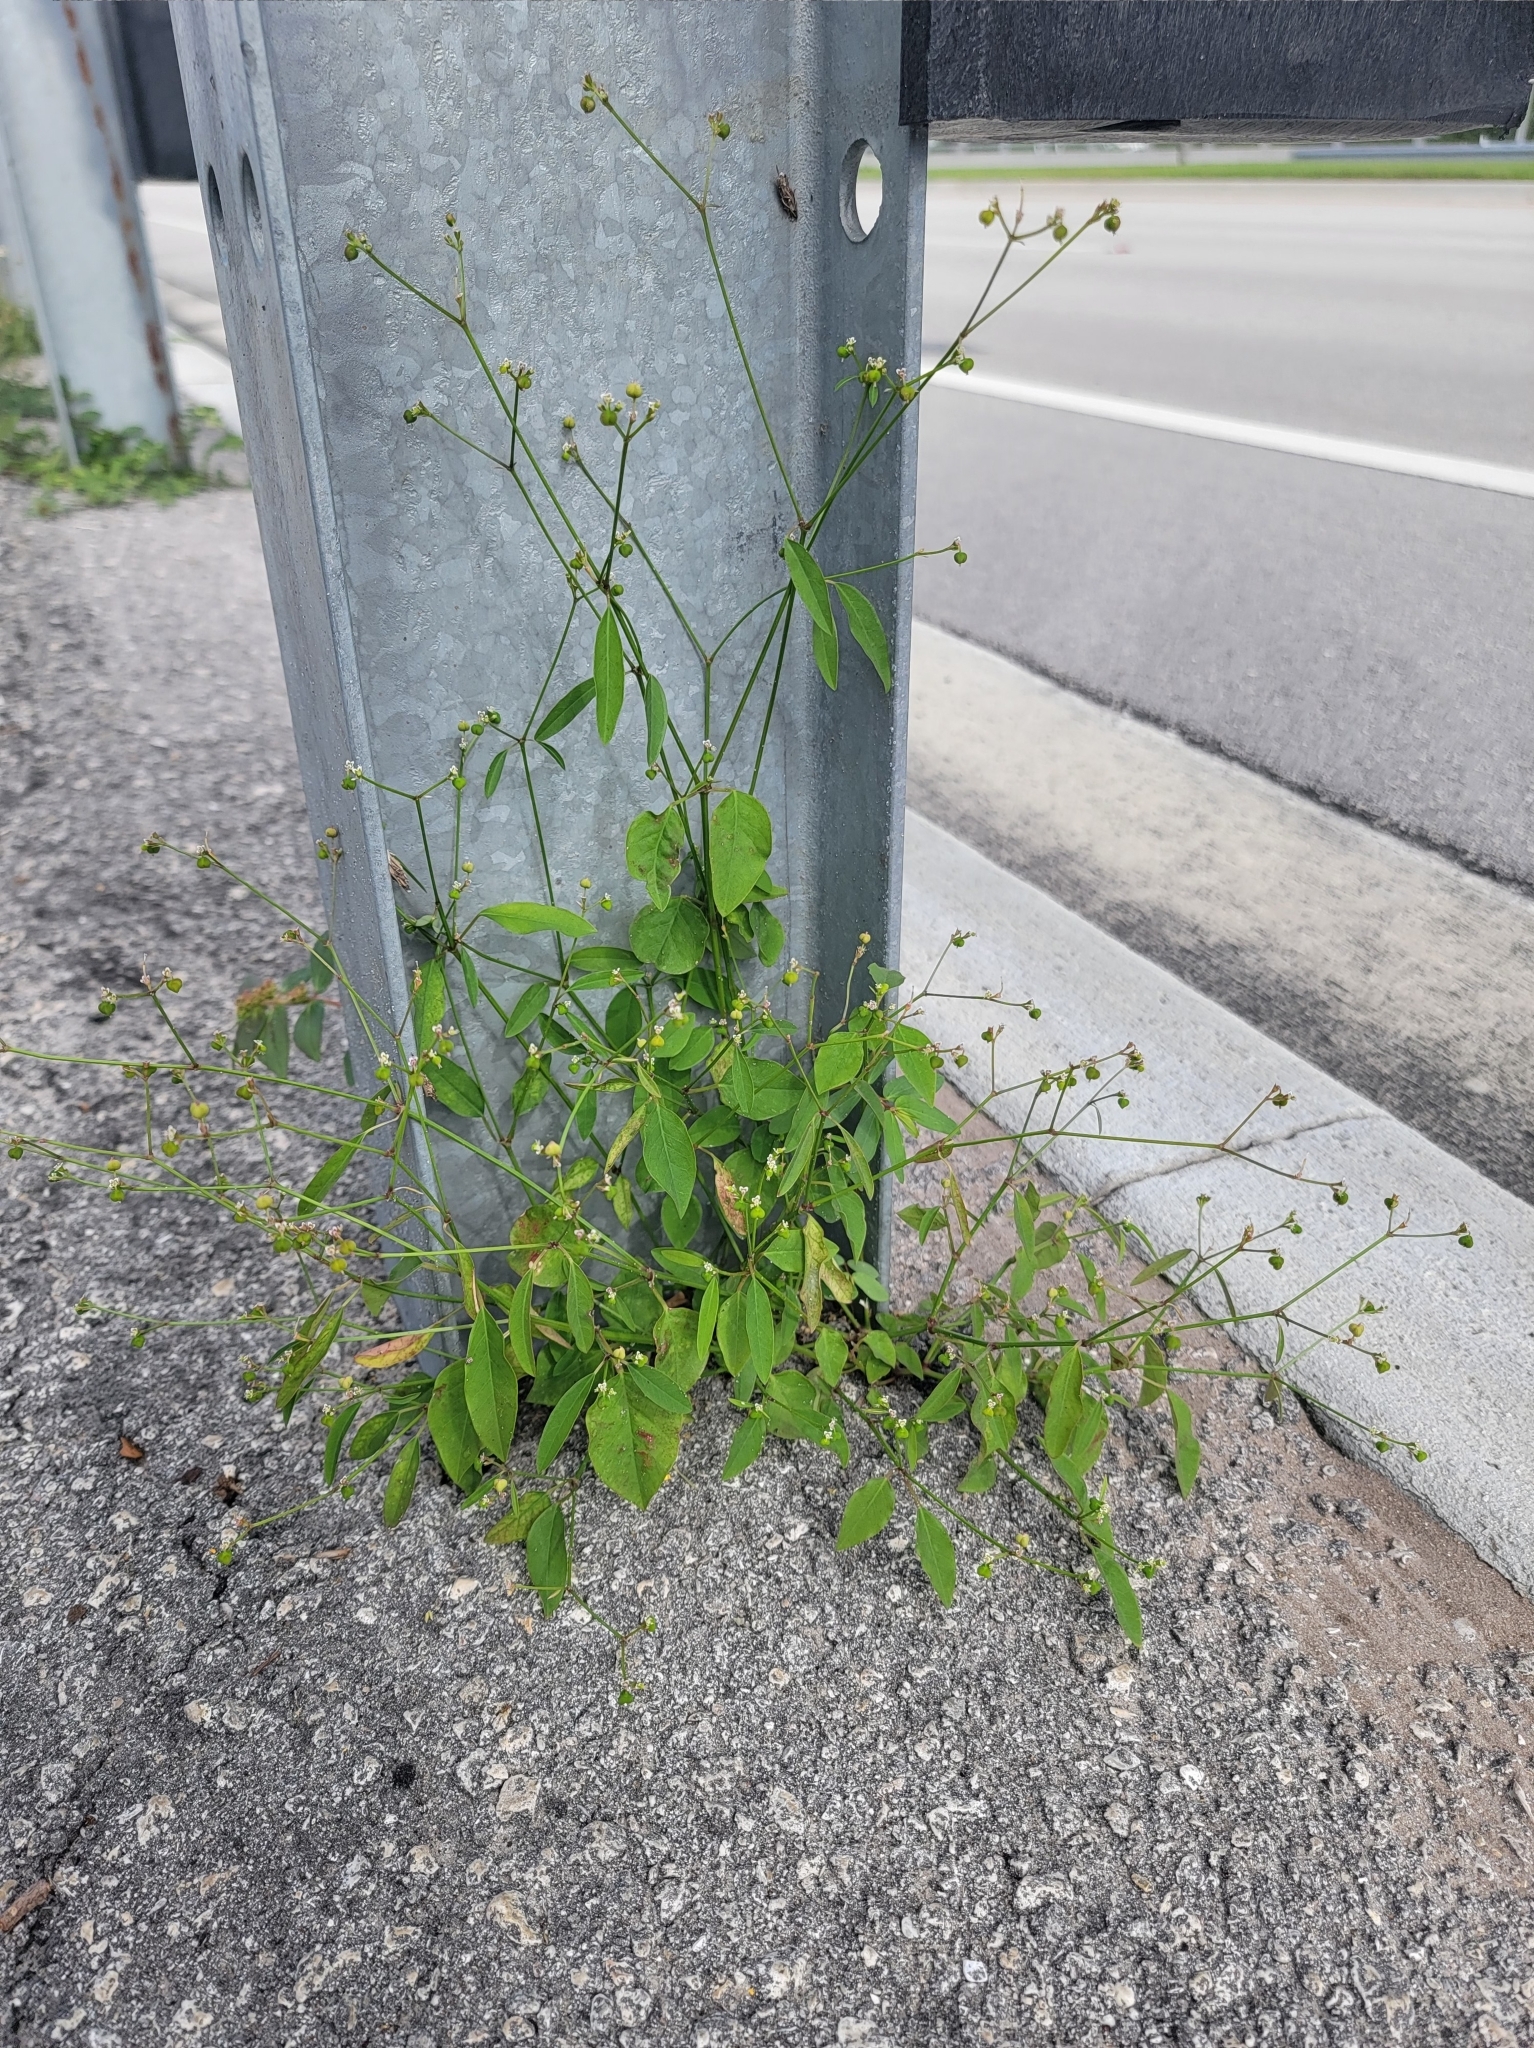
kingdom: Plantae
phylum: Tracheophyta
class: Magnoliopsida
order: Malpighiales
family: Euphorbiaceae
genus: Euphorbia
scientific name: Euphorbia graminea
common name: Grassleaf spurge
